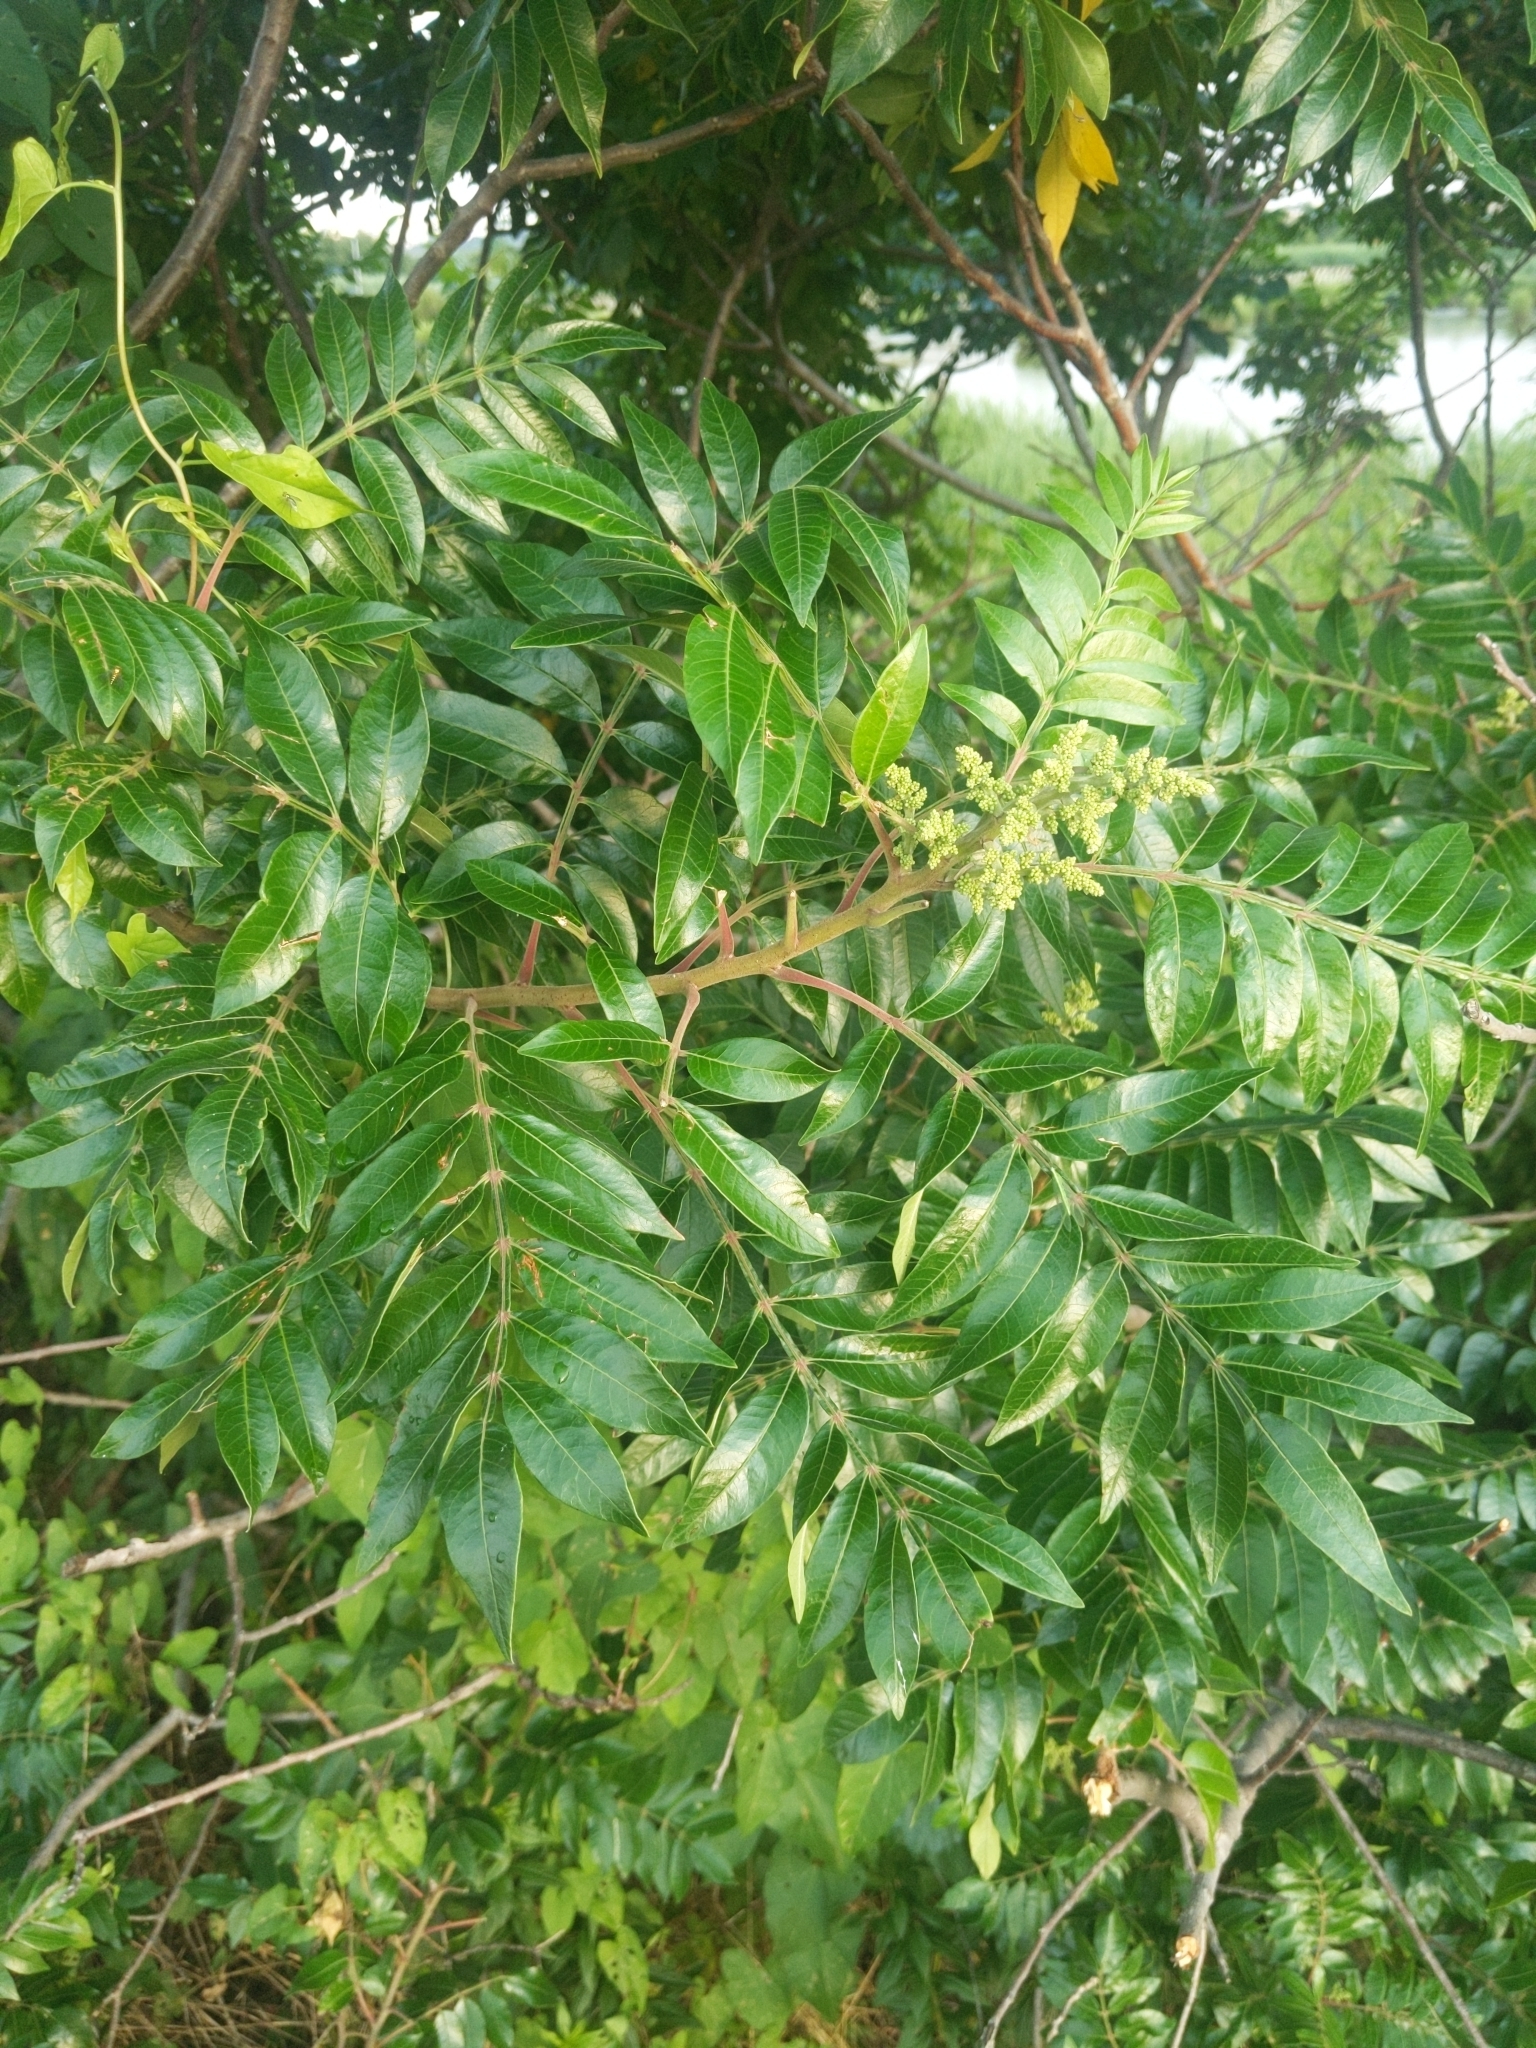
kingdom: Plantae
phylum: Tracheophyta
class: Magnoliopsida
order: Sapindales
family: Anacardiaceae
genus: Rhus
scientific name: Rhus copallina
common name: Shining sumac
